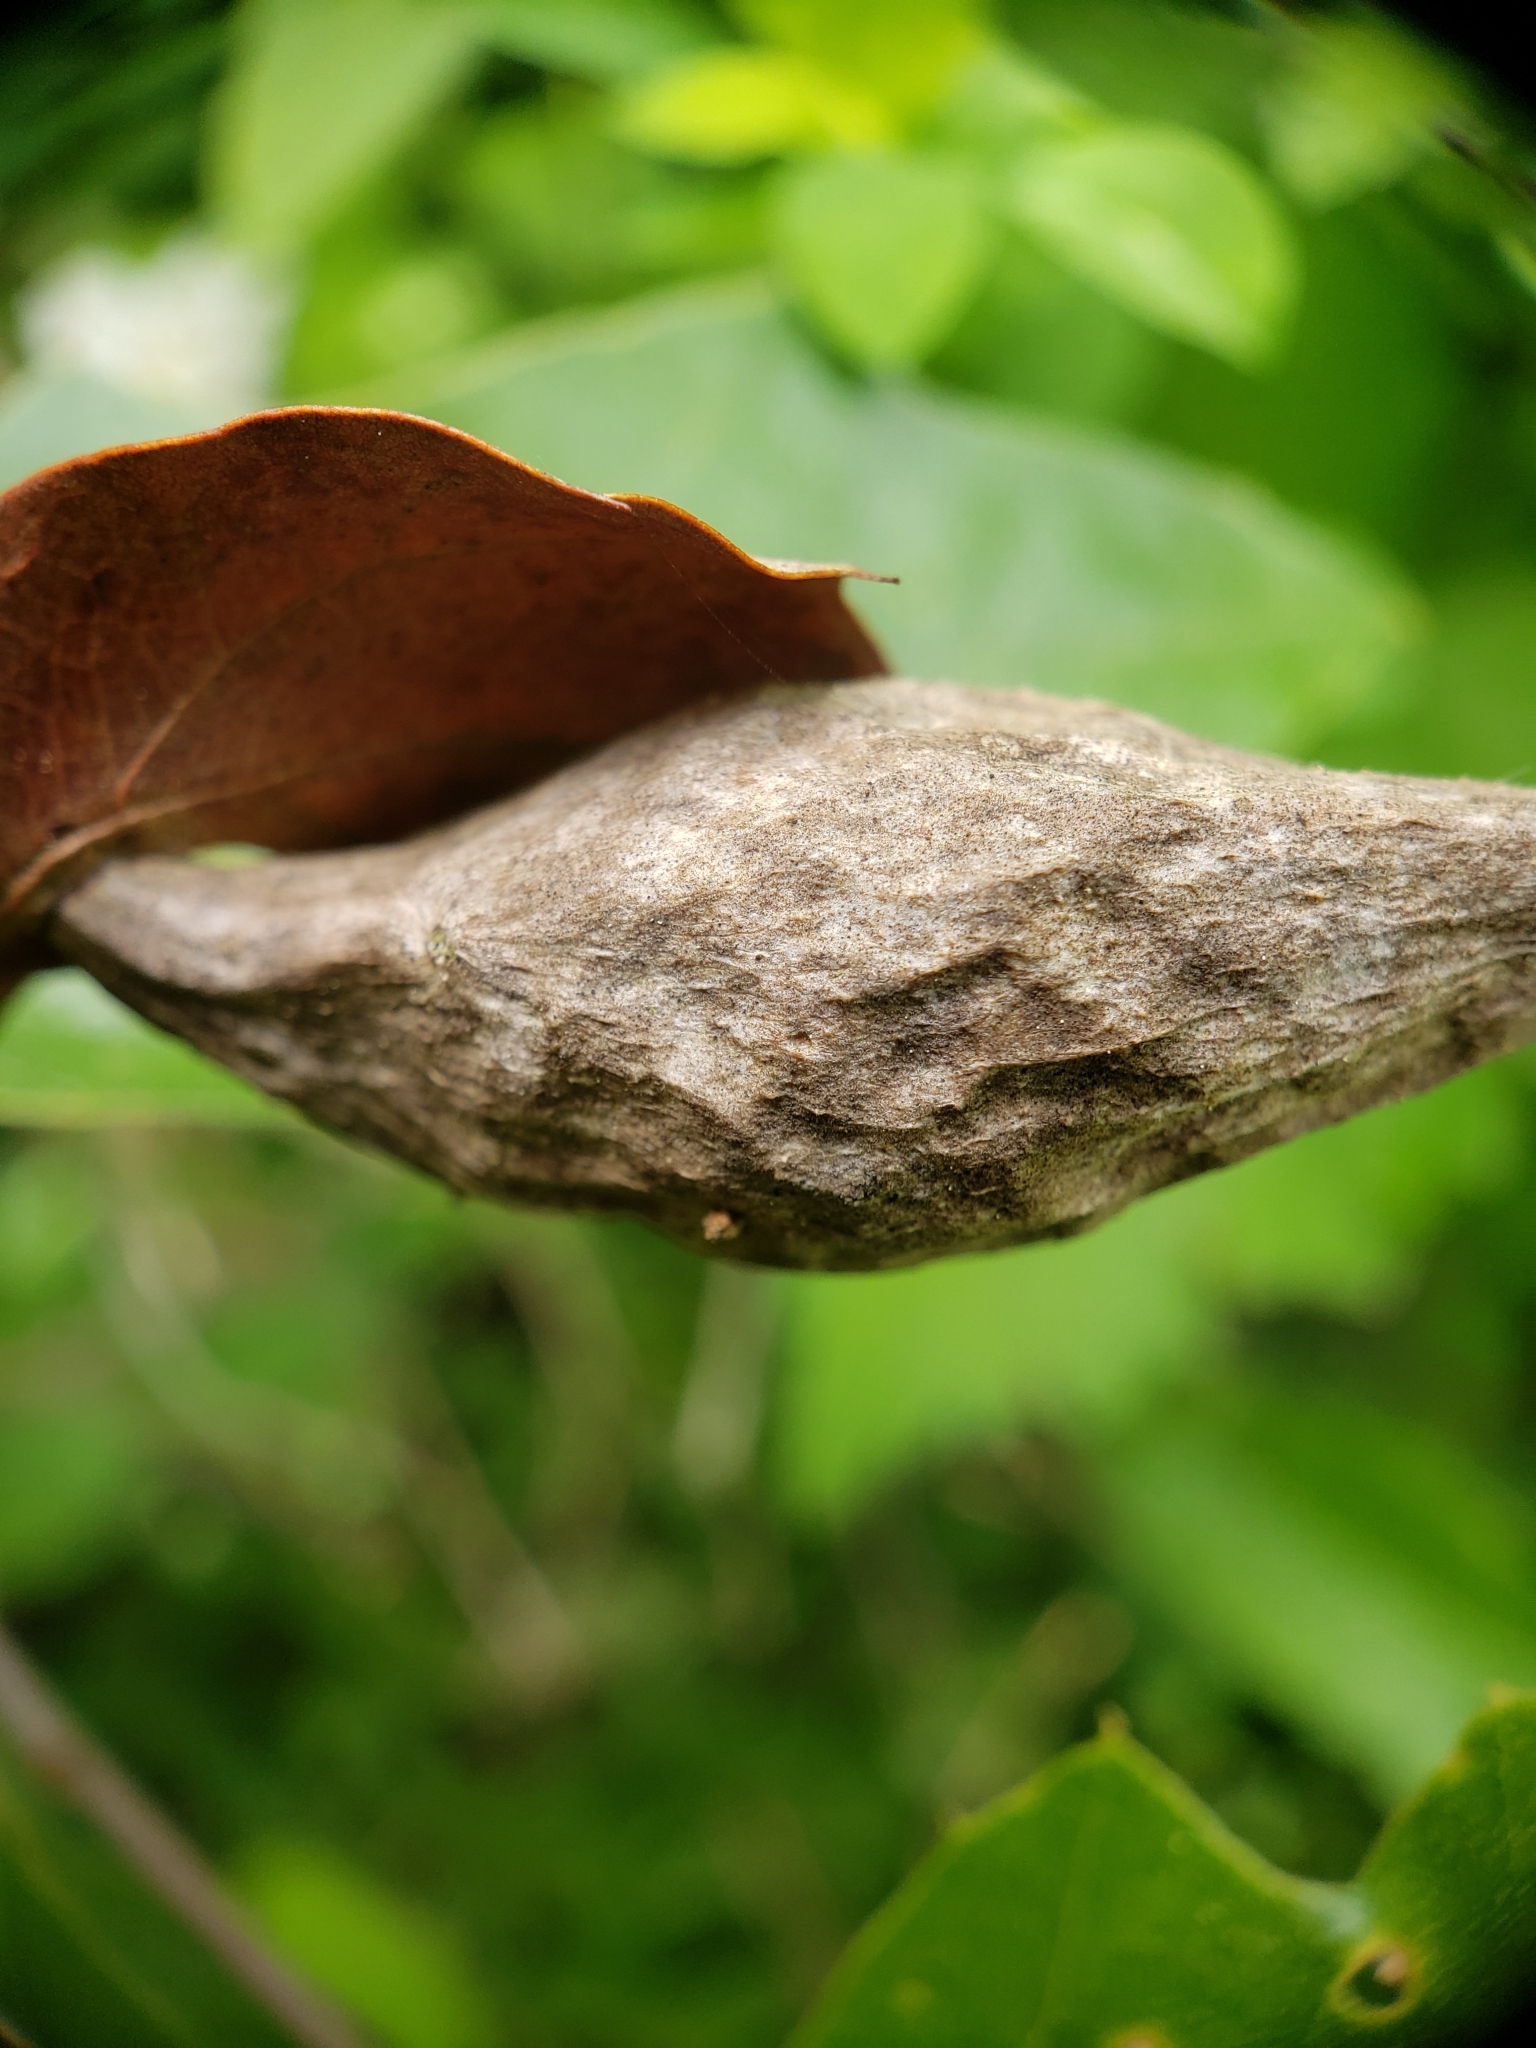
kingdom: Animalia
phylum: Arthropoda
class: Insecta
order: Hymenoptera
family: Cynipidae
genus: Amphibolips
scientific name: Amphibolips
